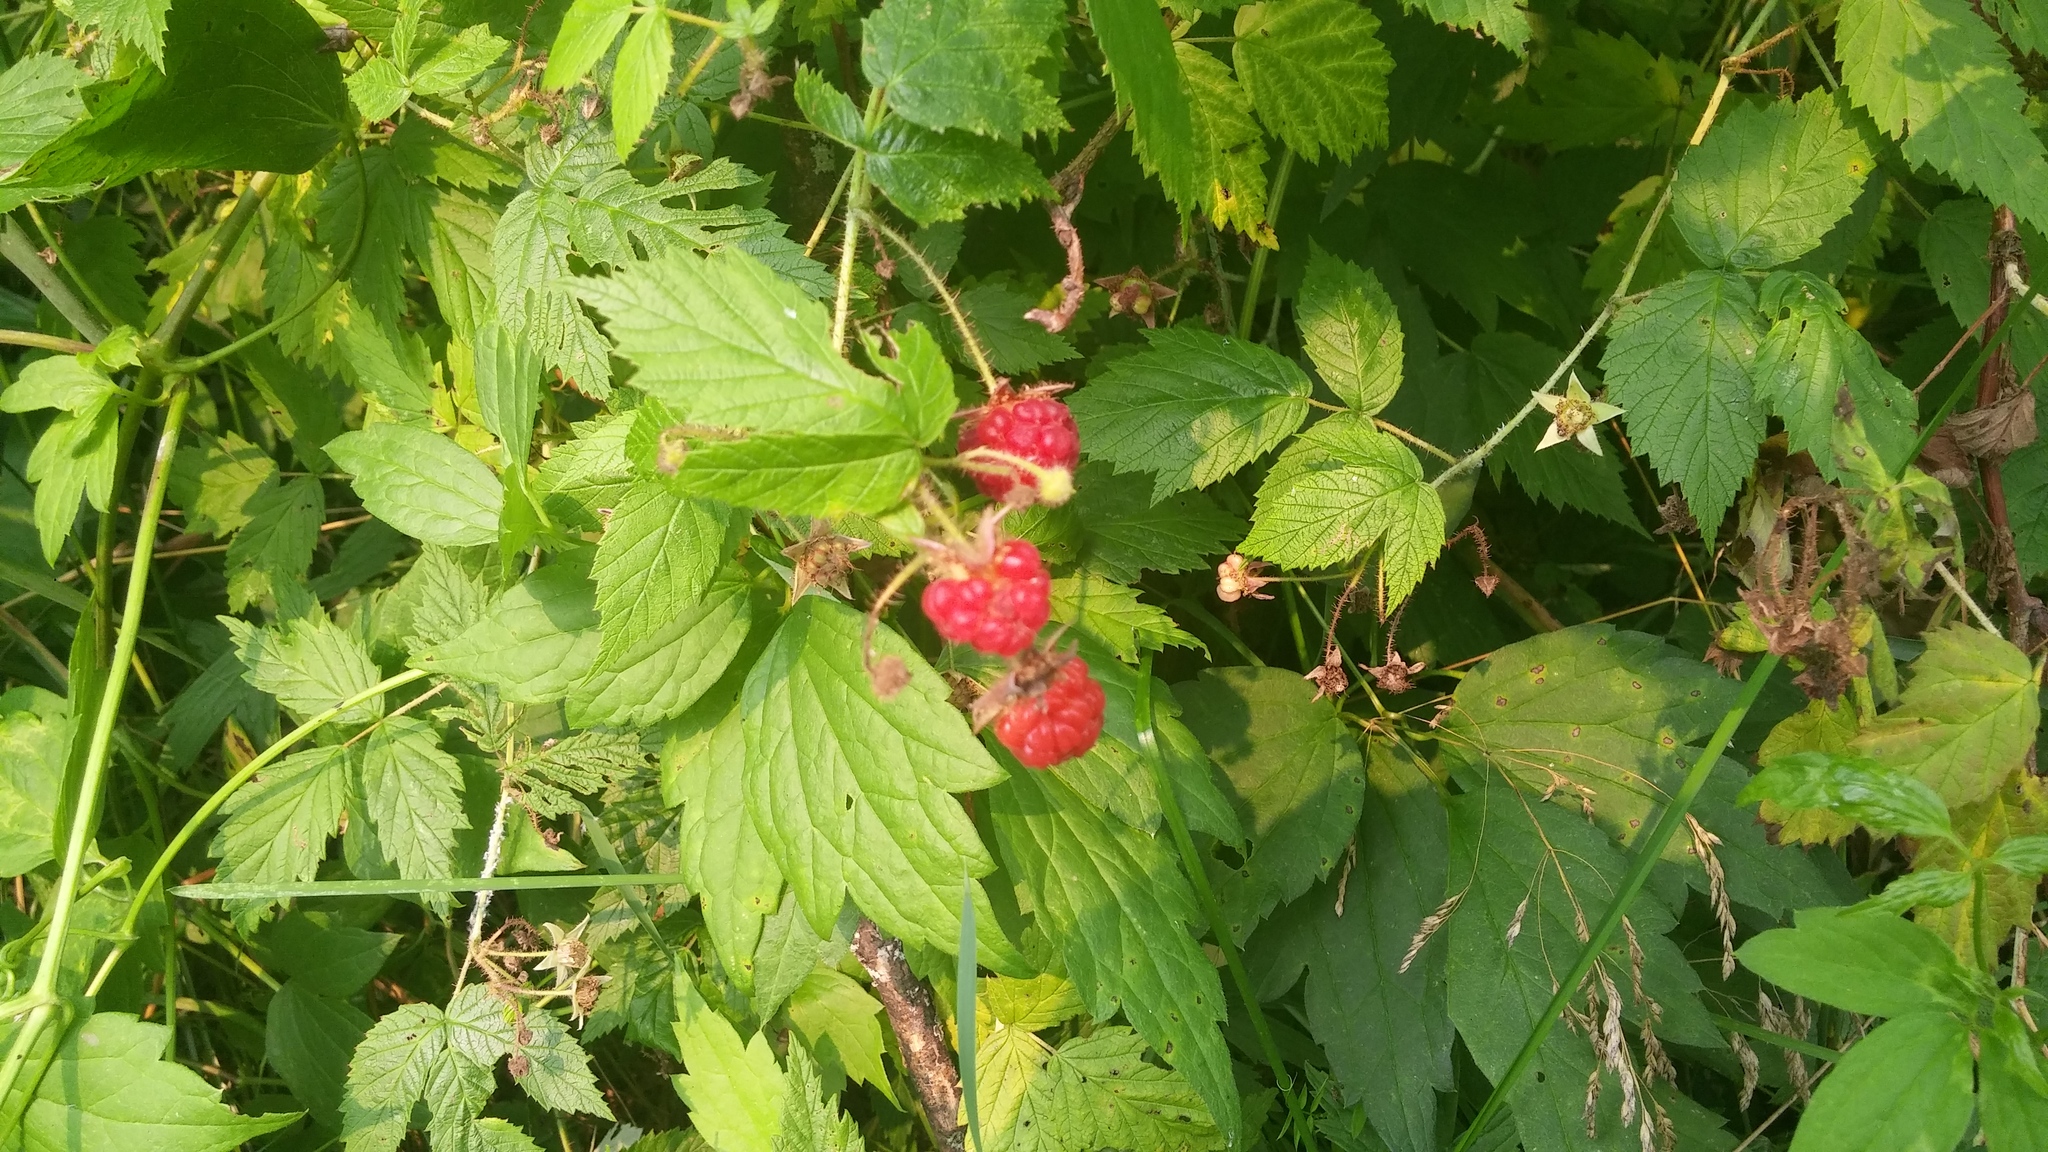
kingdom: Plantae
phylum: Tracheophyta
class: Magnoliopsida
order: Rosales
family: Rosaceae
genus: Rubus
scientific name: Rubus idaeus
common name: Raspberry
